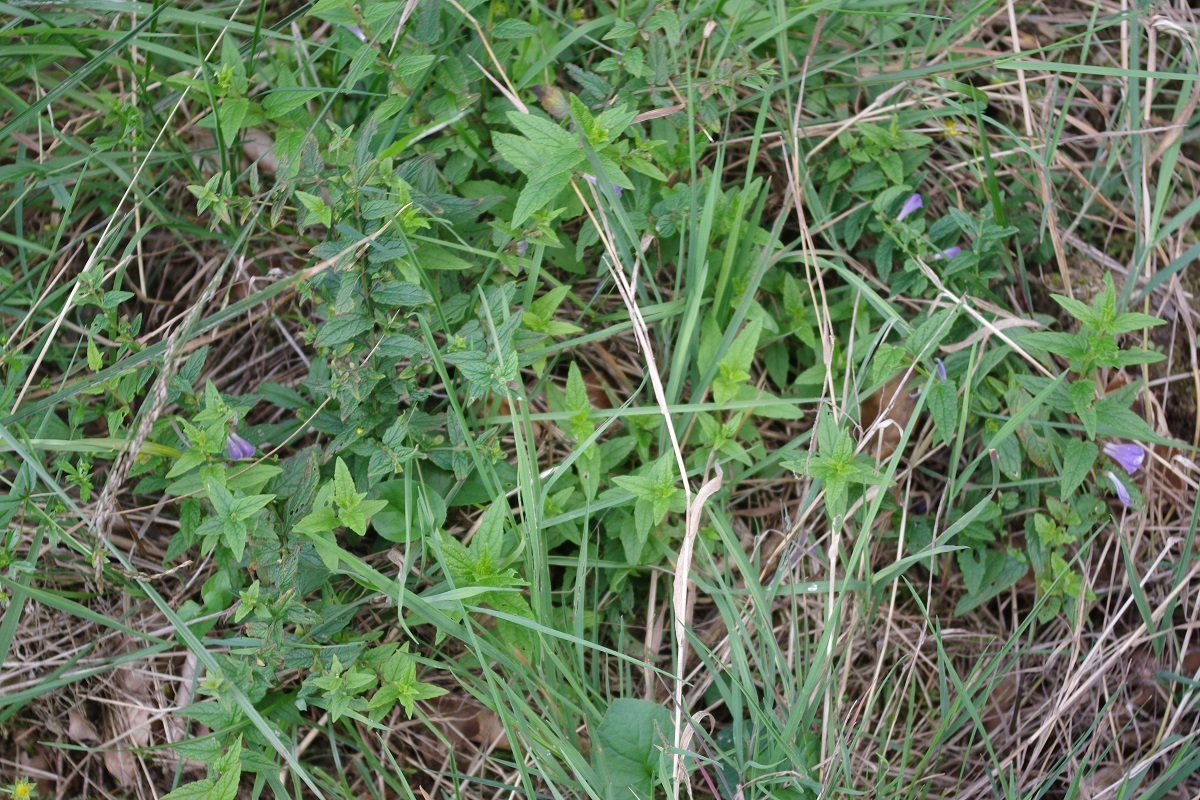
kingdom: Plantae
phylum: Tracheophyta
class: Magnoliopsida
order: Lamiales
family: Lamiaceae
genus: Scutellaria
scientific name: Scutellaria galericulata
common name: Skullcap
